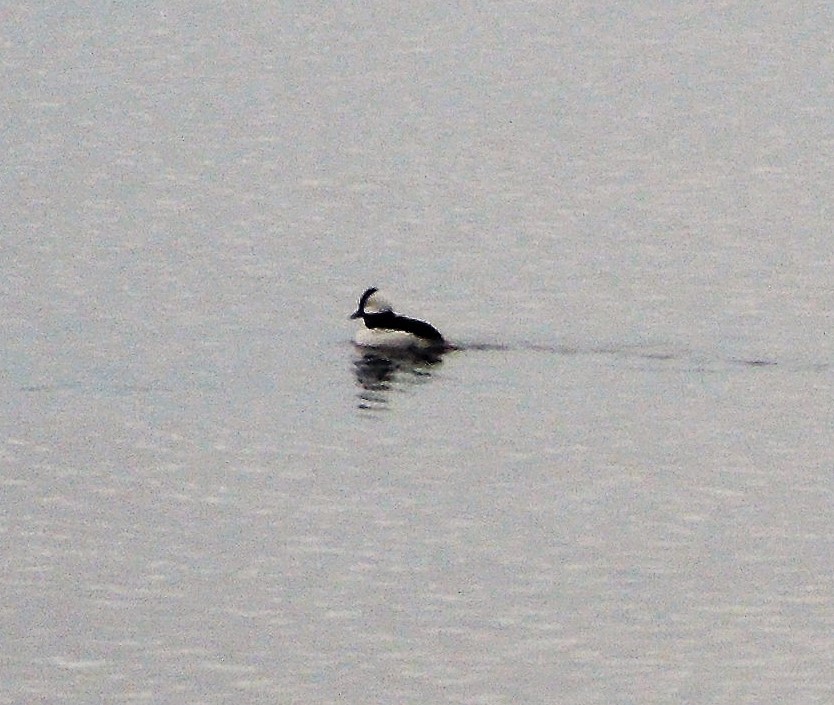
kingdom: Animalia
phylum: Chordata
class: Aves
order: Anseriformes
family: Anatidae
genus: Bucephala
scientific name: Bucephala albeola
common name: Bufflehead
